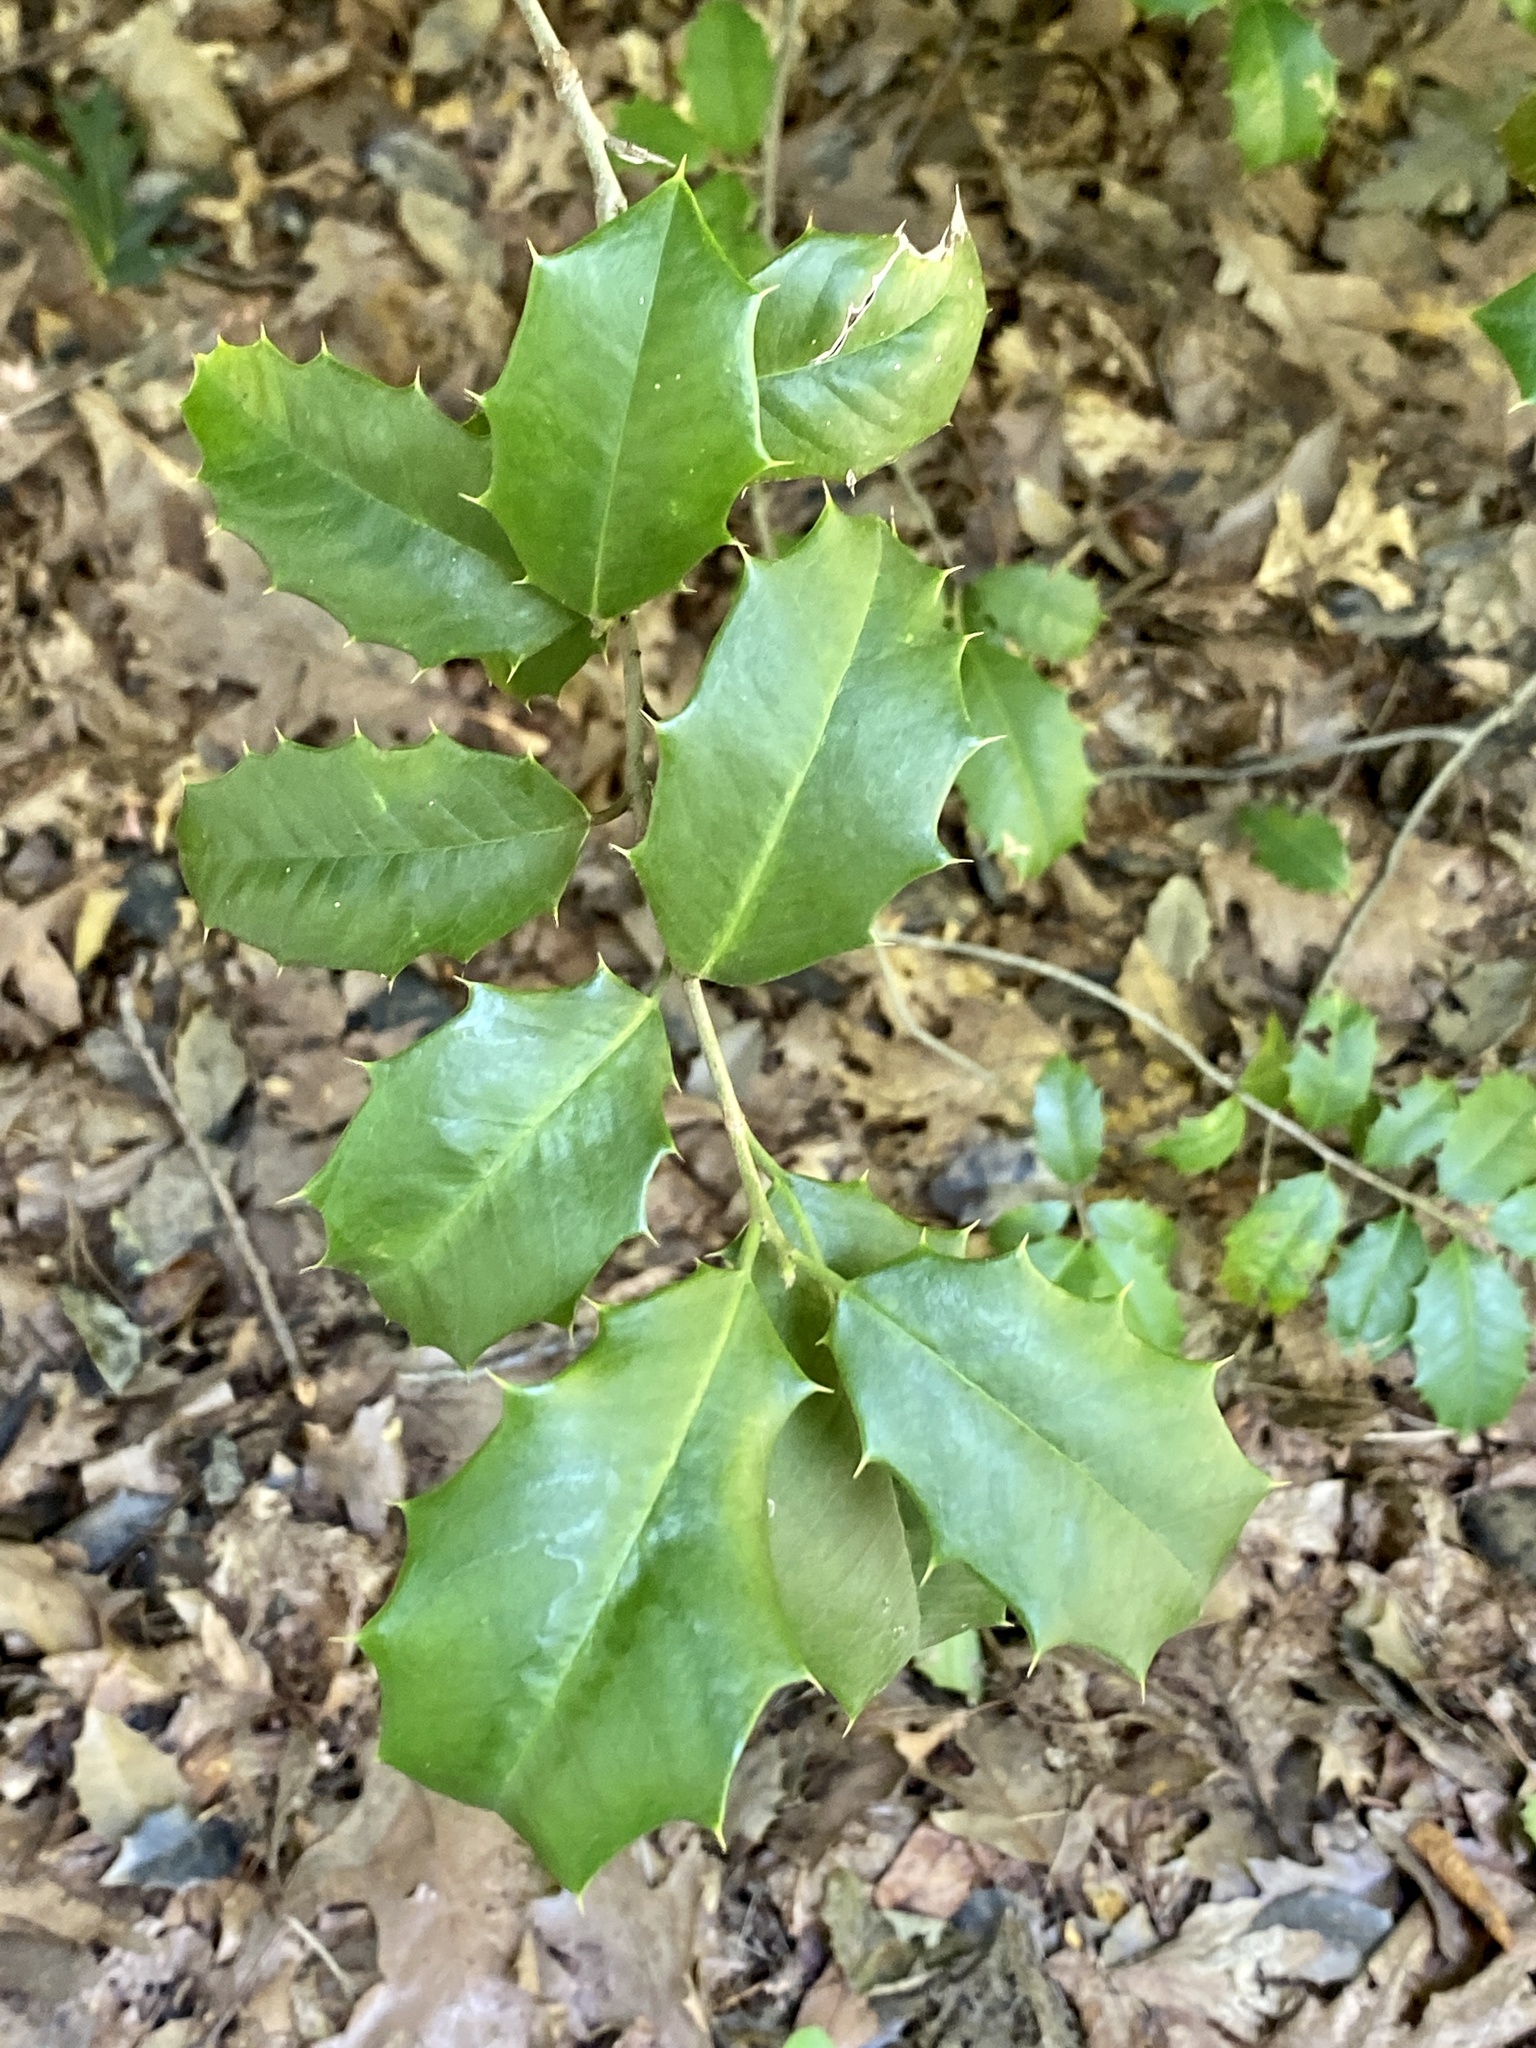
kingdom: Plantae
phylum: Tracheophyta
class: Magnoliopsida
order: Aquifoliales
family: Aquifoliaceae
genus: Ilex
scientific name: Ilex opaca
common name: American holly
